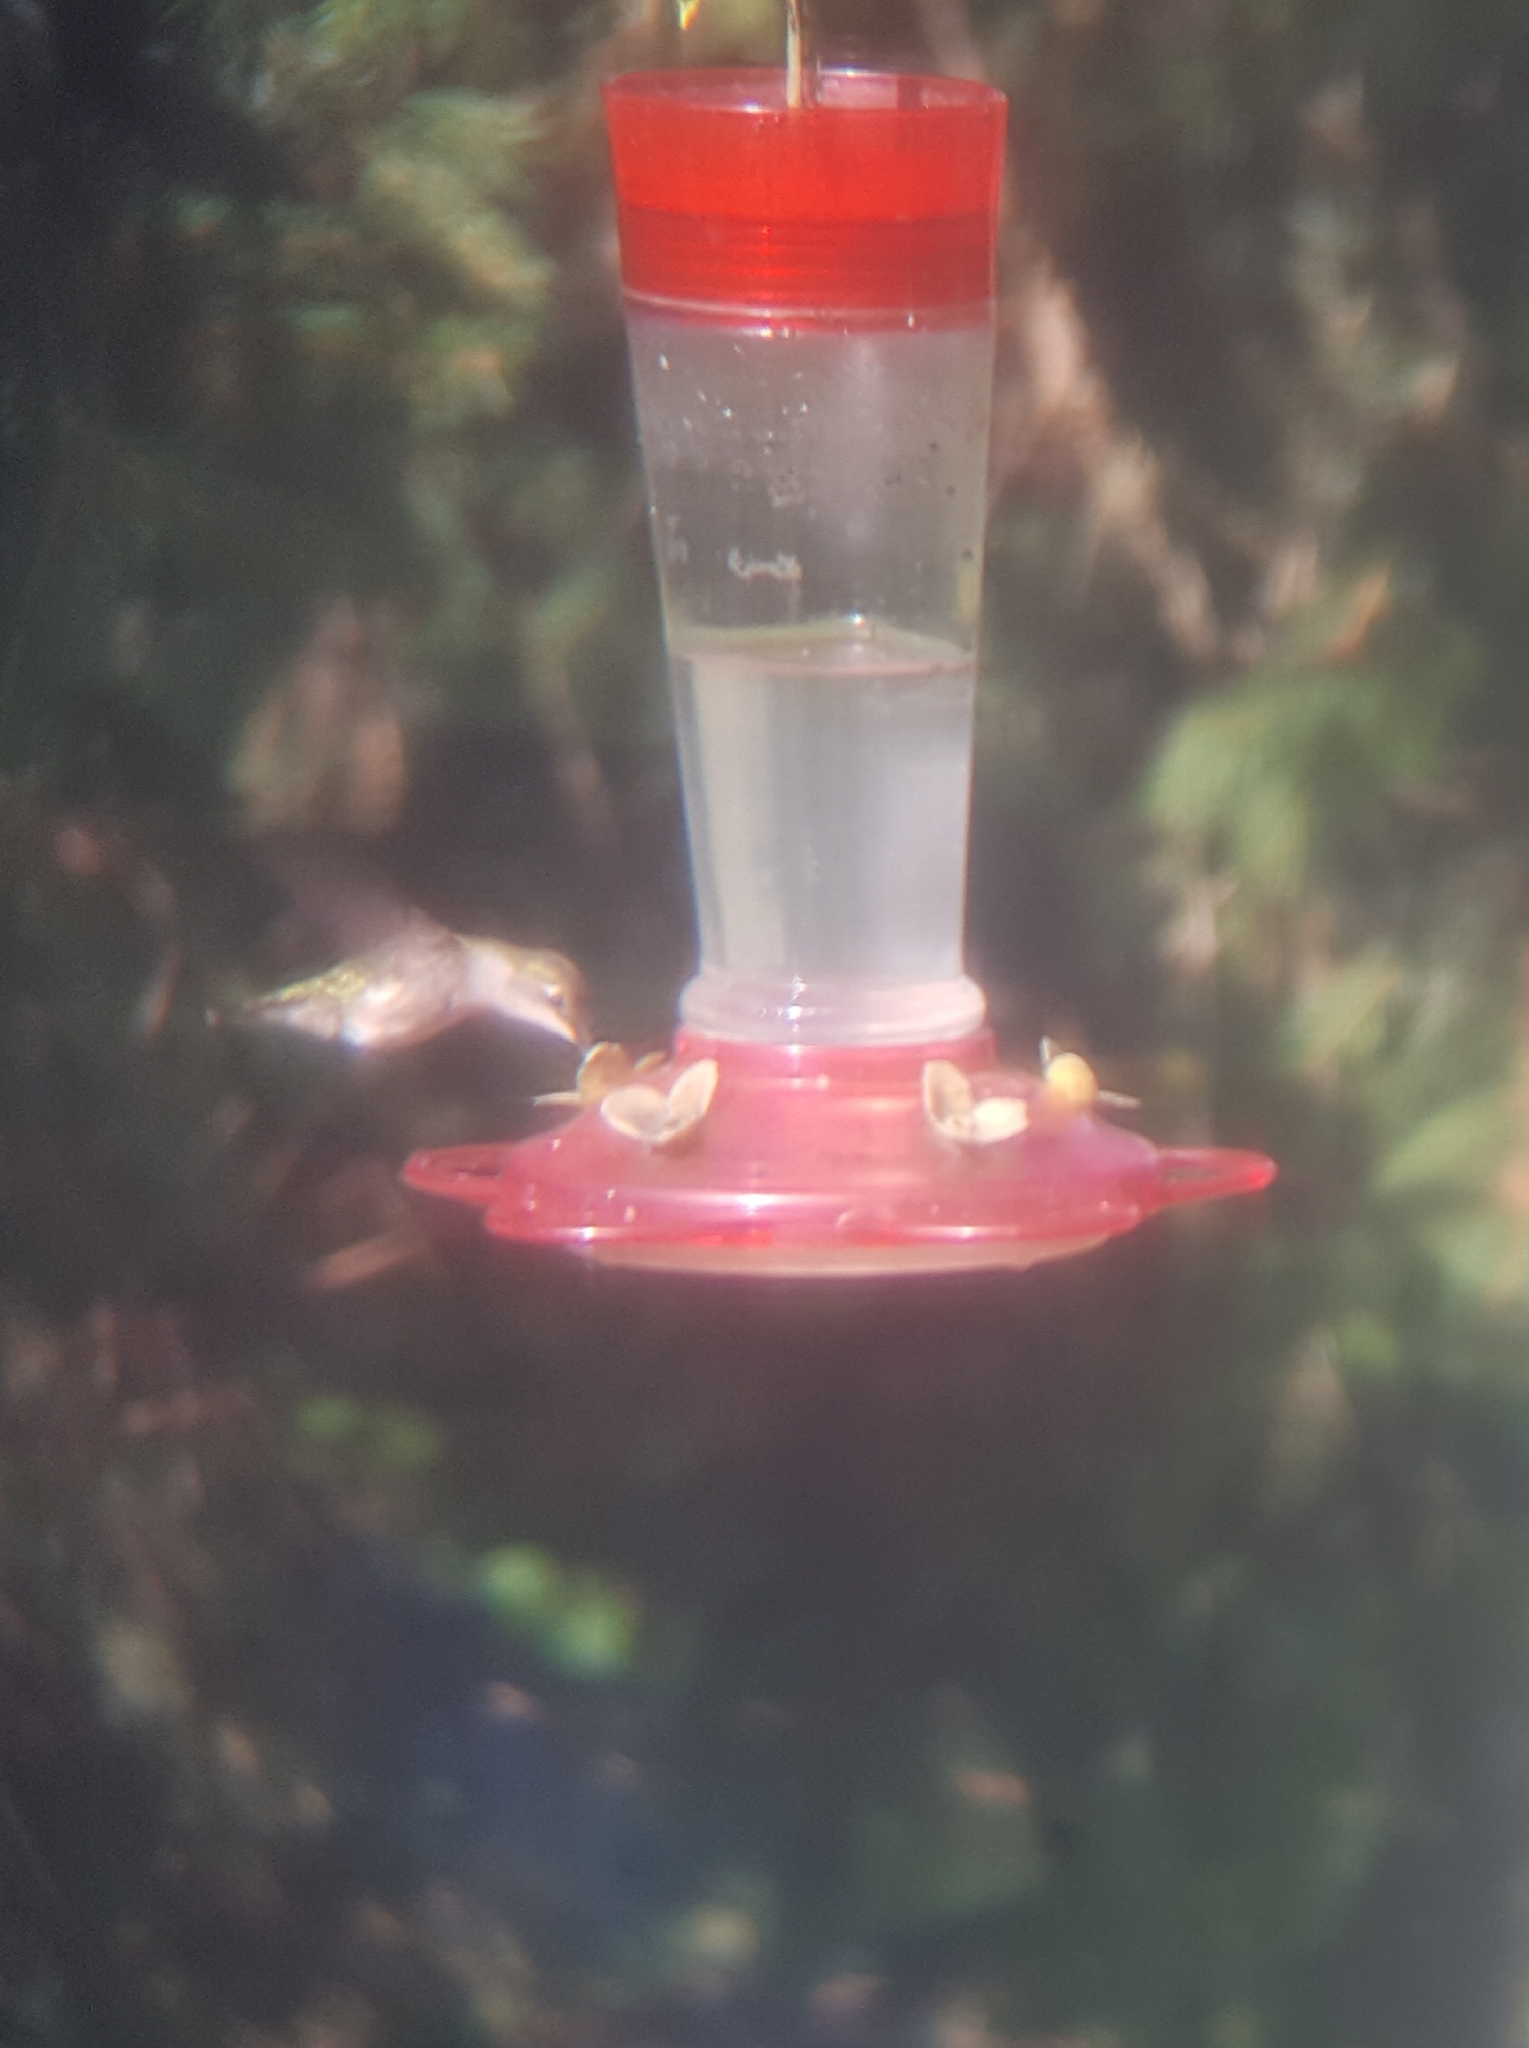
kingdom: Animalia
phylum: Chordata
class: Aves
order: Apodiformes
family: Trochilidae
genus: Archilochus
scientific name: Archilochus colubris
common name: Ruby-throated hummingbird
